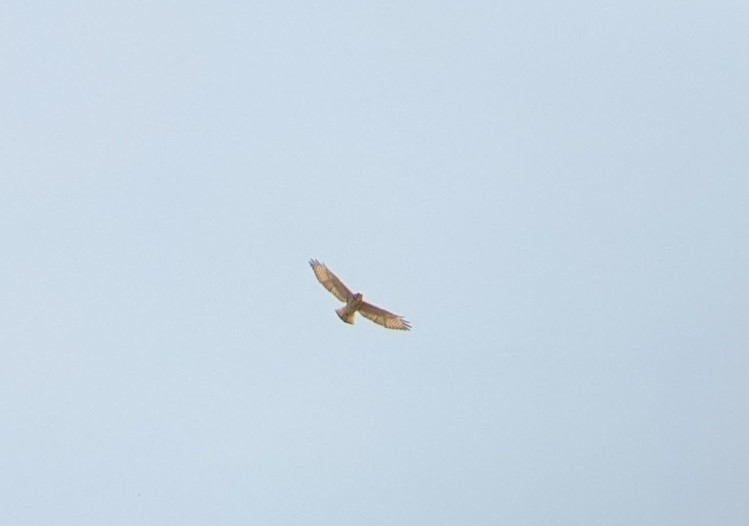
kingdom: Animalia
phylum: Chordata
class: Aves
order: Accipitriformes
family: Accipitridae
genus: Buteo
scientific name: Buteo platypterus
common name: Broad-winged hawk
